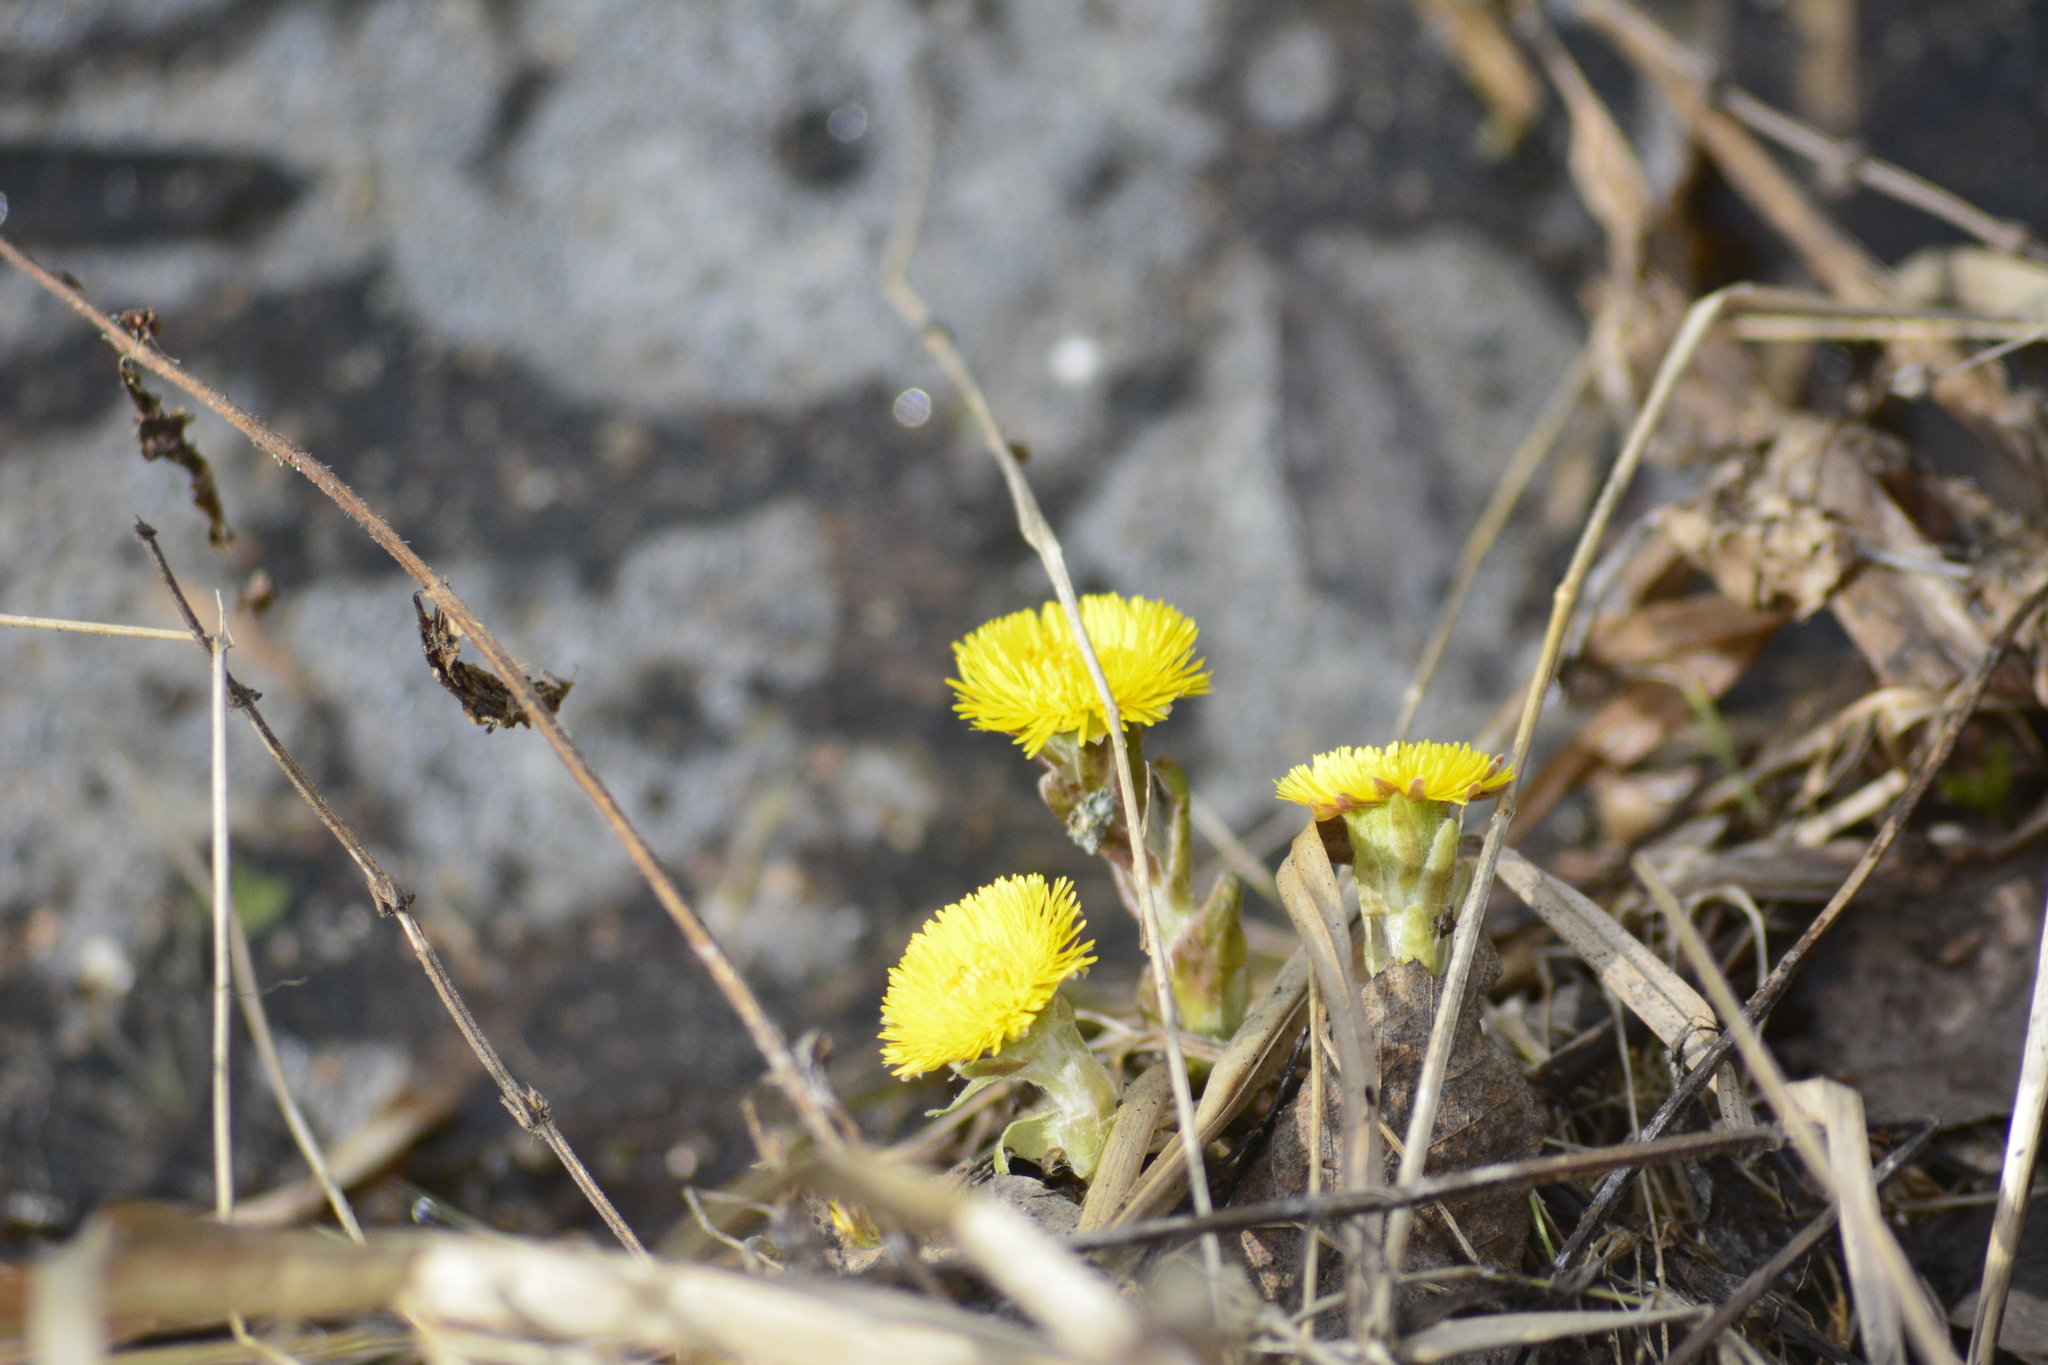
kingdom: Plantae
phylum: Tracheophyta
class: Magnoliopsida
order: Asterales
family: Asteraceae
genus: Tussilago
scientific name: Tussilago farfara
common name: Coltsfoot
